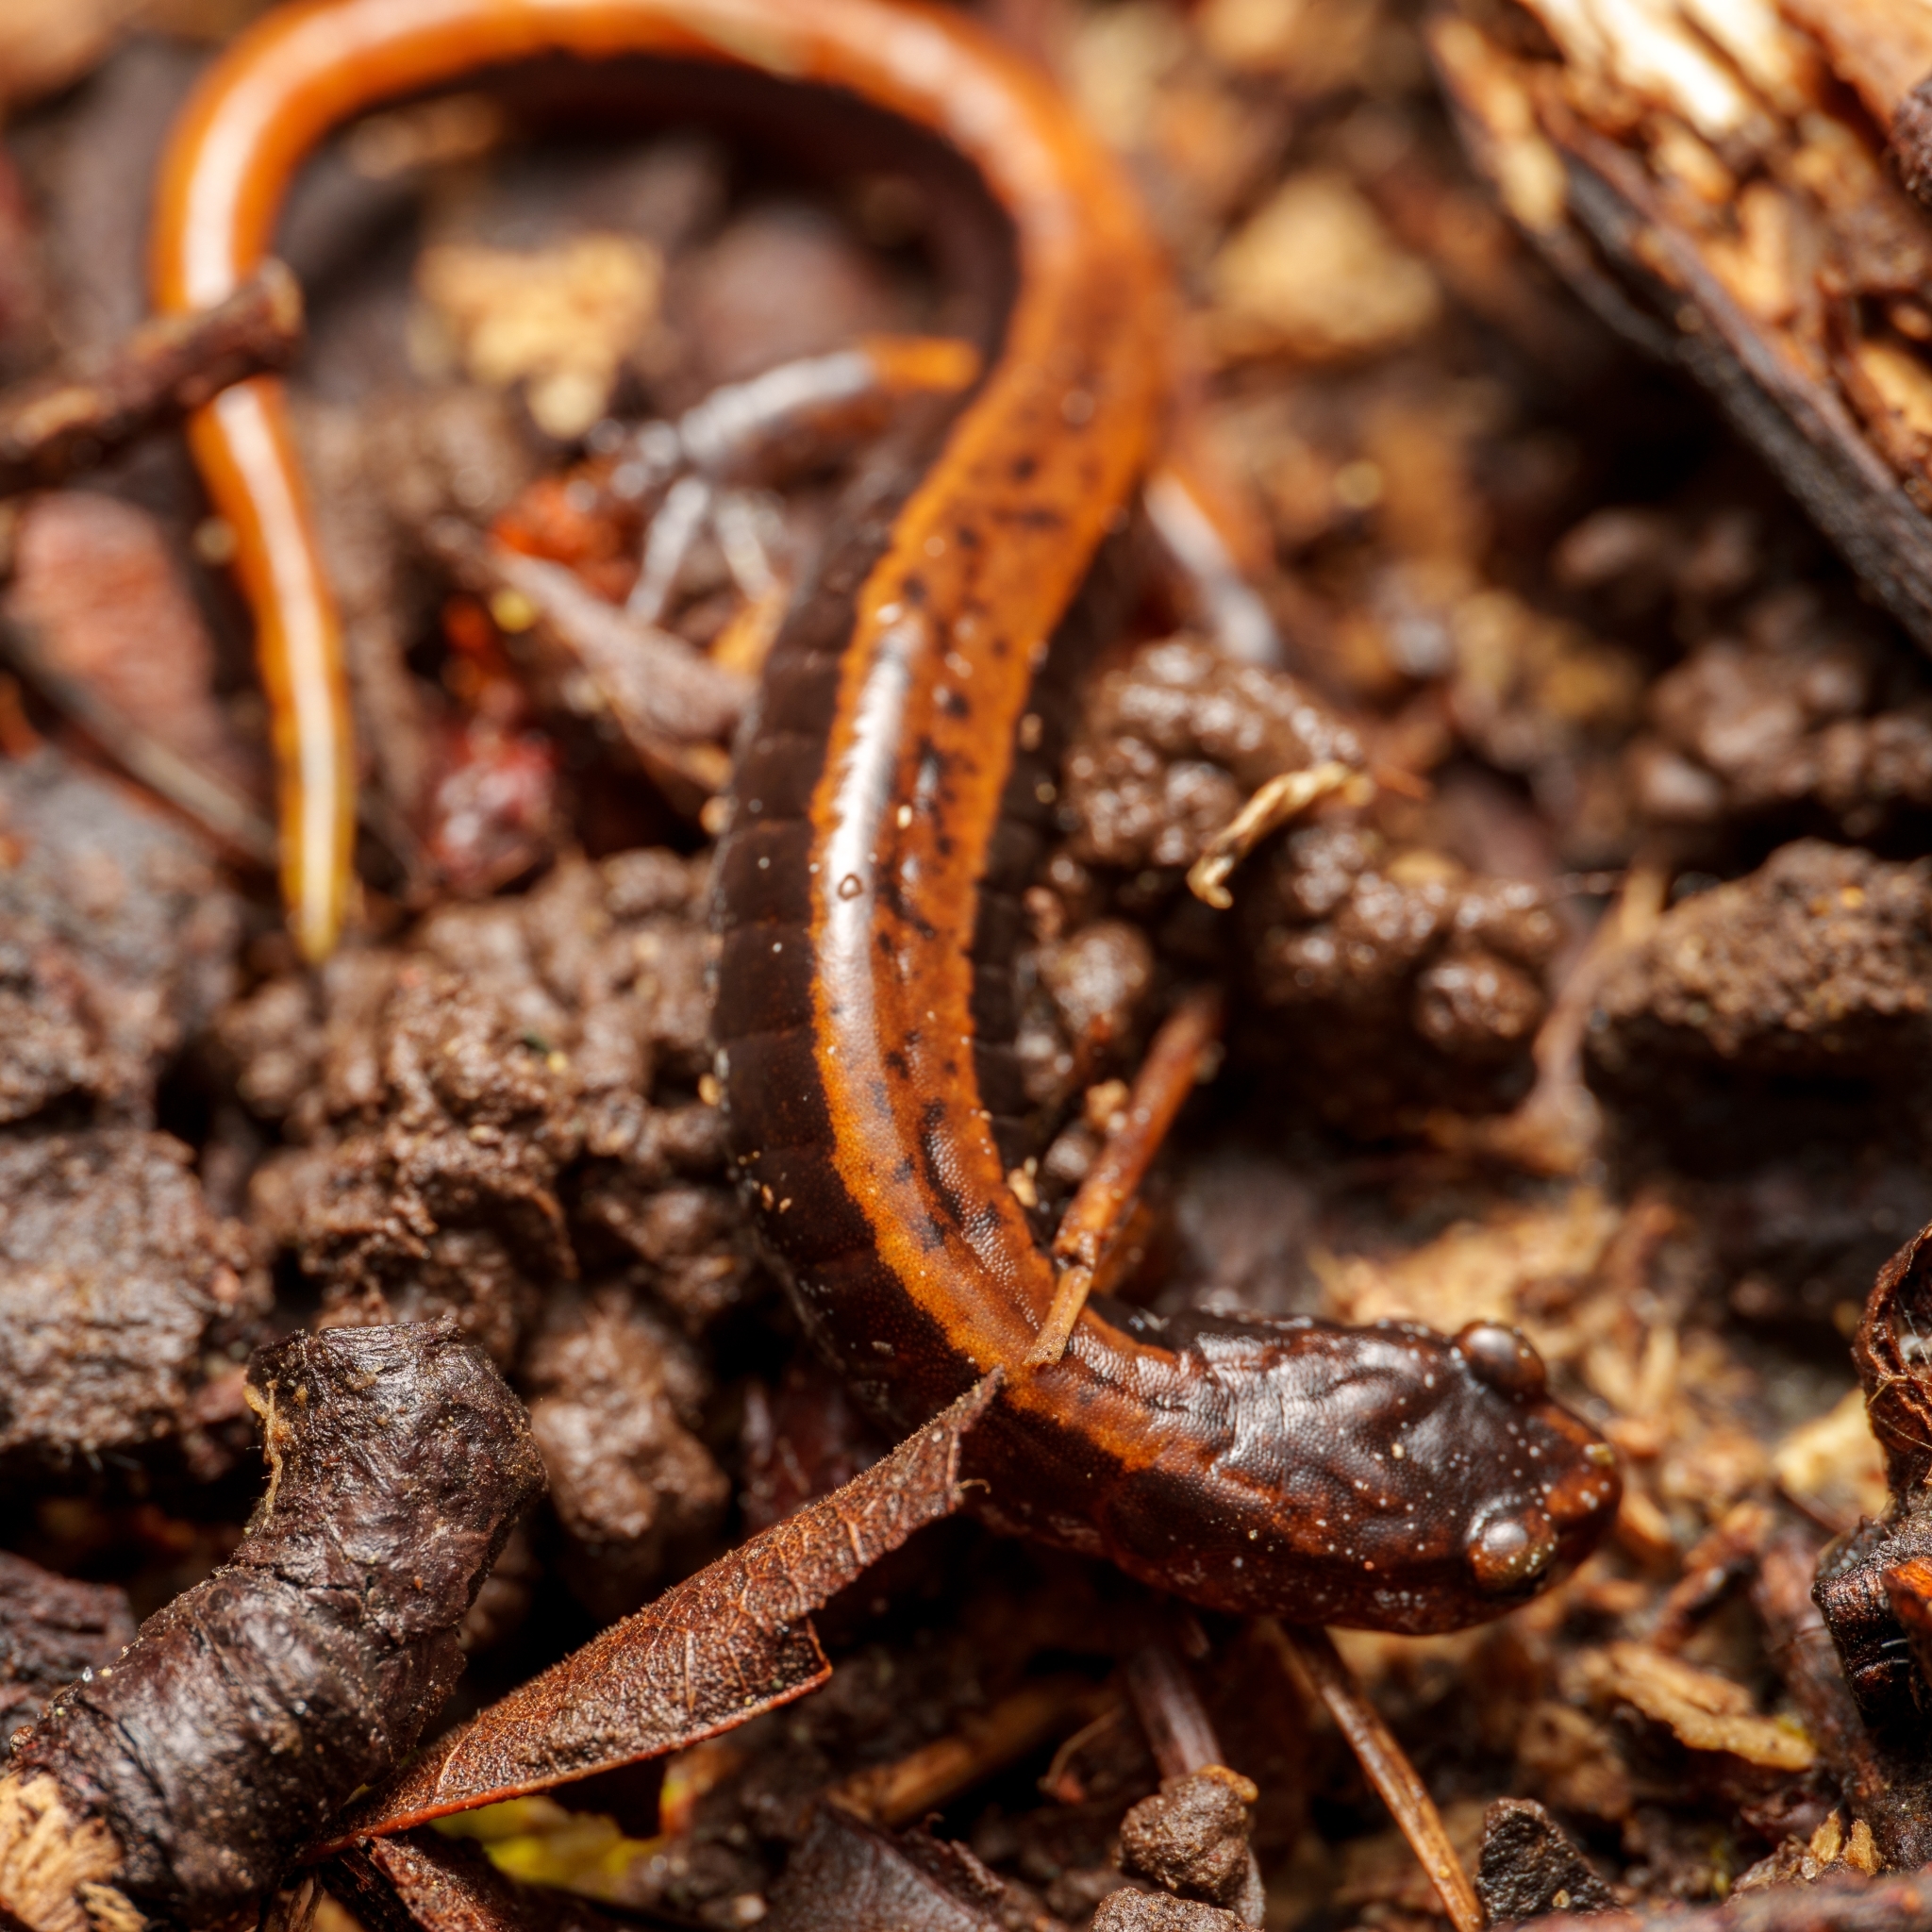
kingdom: Animalia
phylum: Chordata
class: Amphibia
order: Caudata
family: Plethodontidae
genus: Plethodon
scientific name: Plethodon vehiculum
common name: Western red-backed salamander
